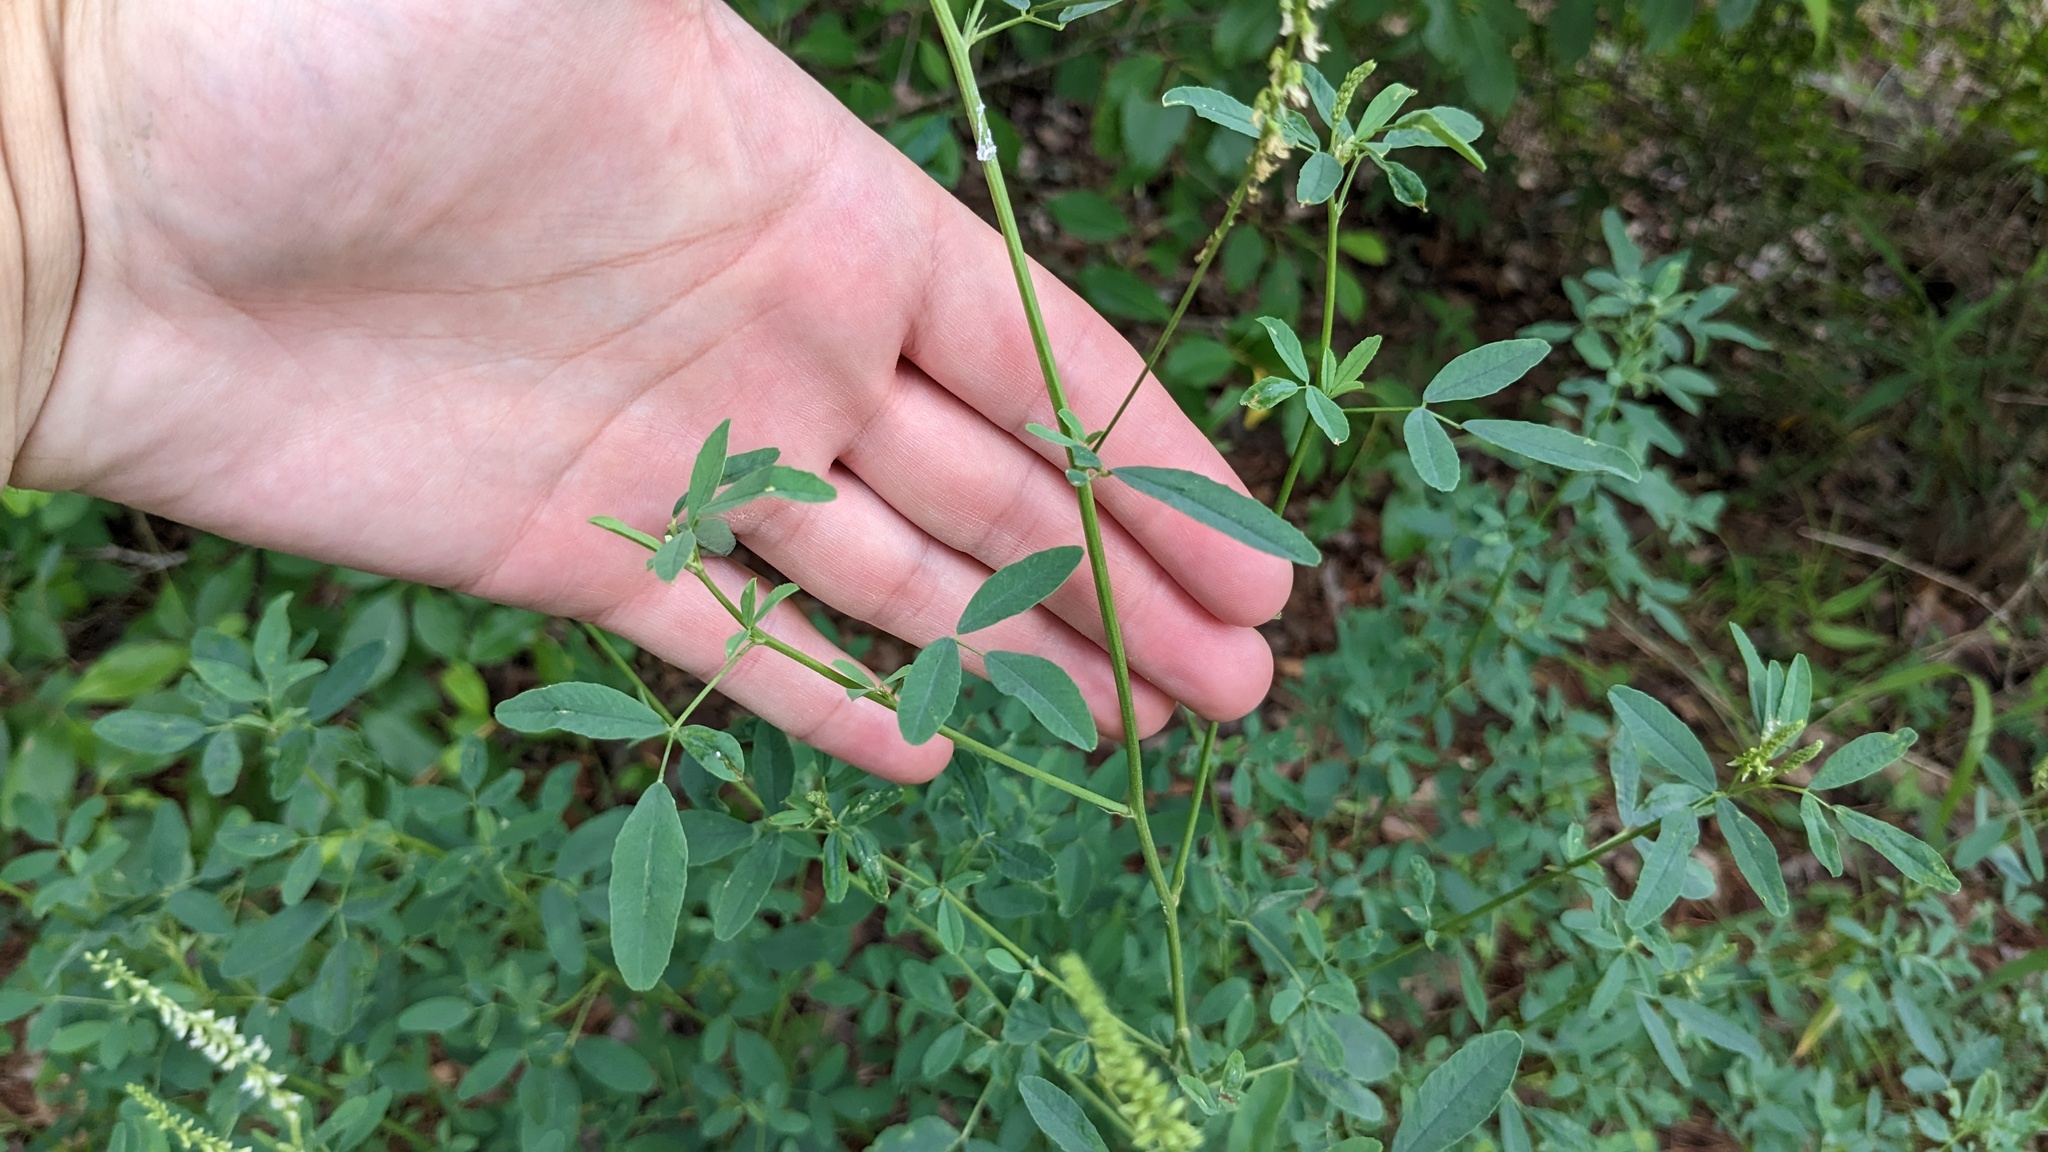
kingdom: Plantae
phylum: Tracheophyta
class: Magnoliopsida
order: Fabales
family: Fabaceae
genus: Melilotus
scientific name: Melilotus albus
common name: White melilot
